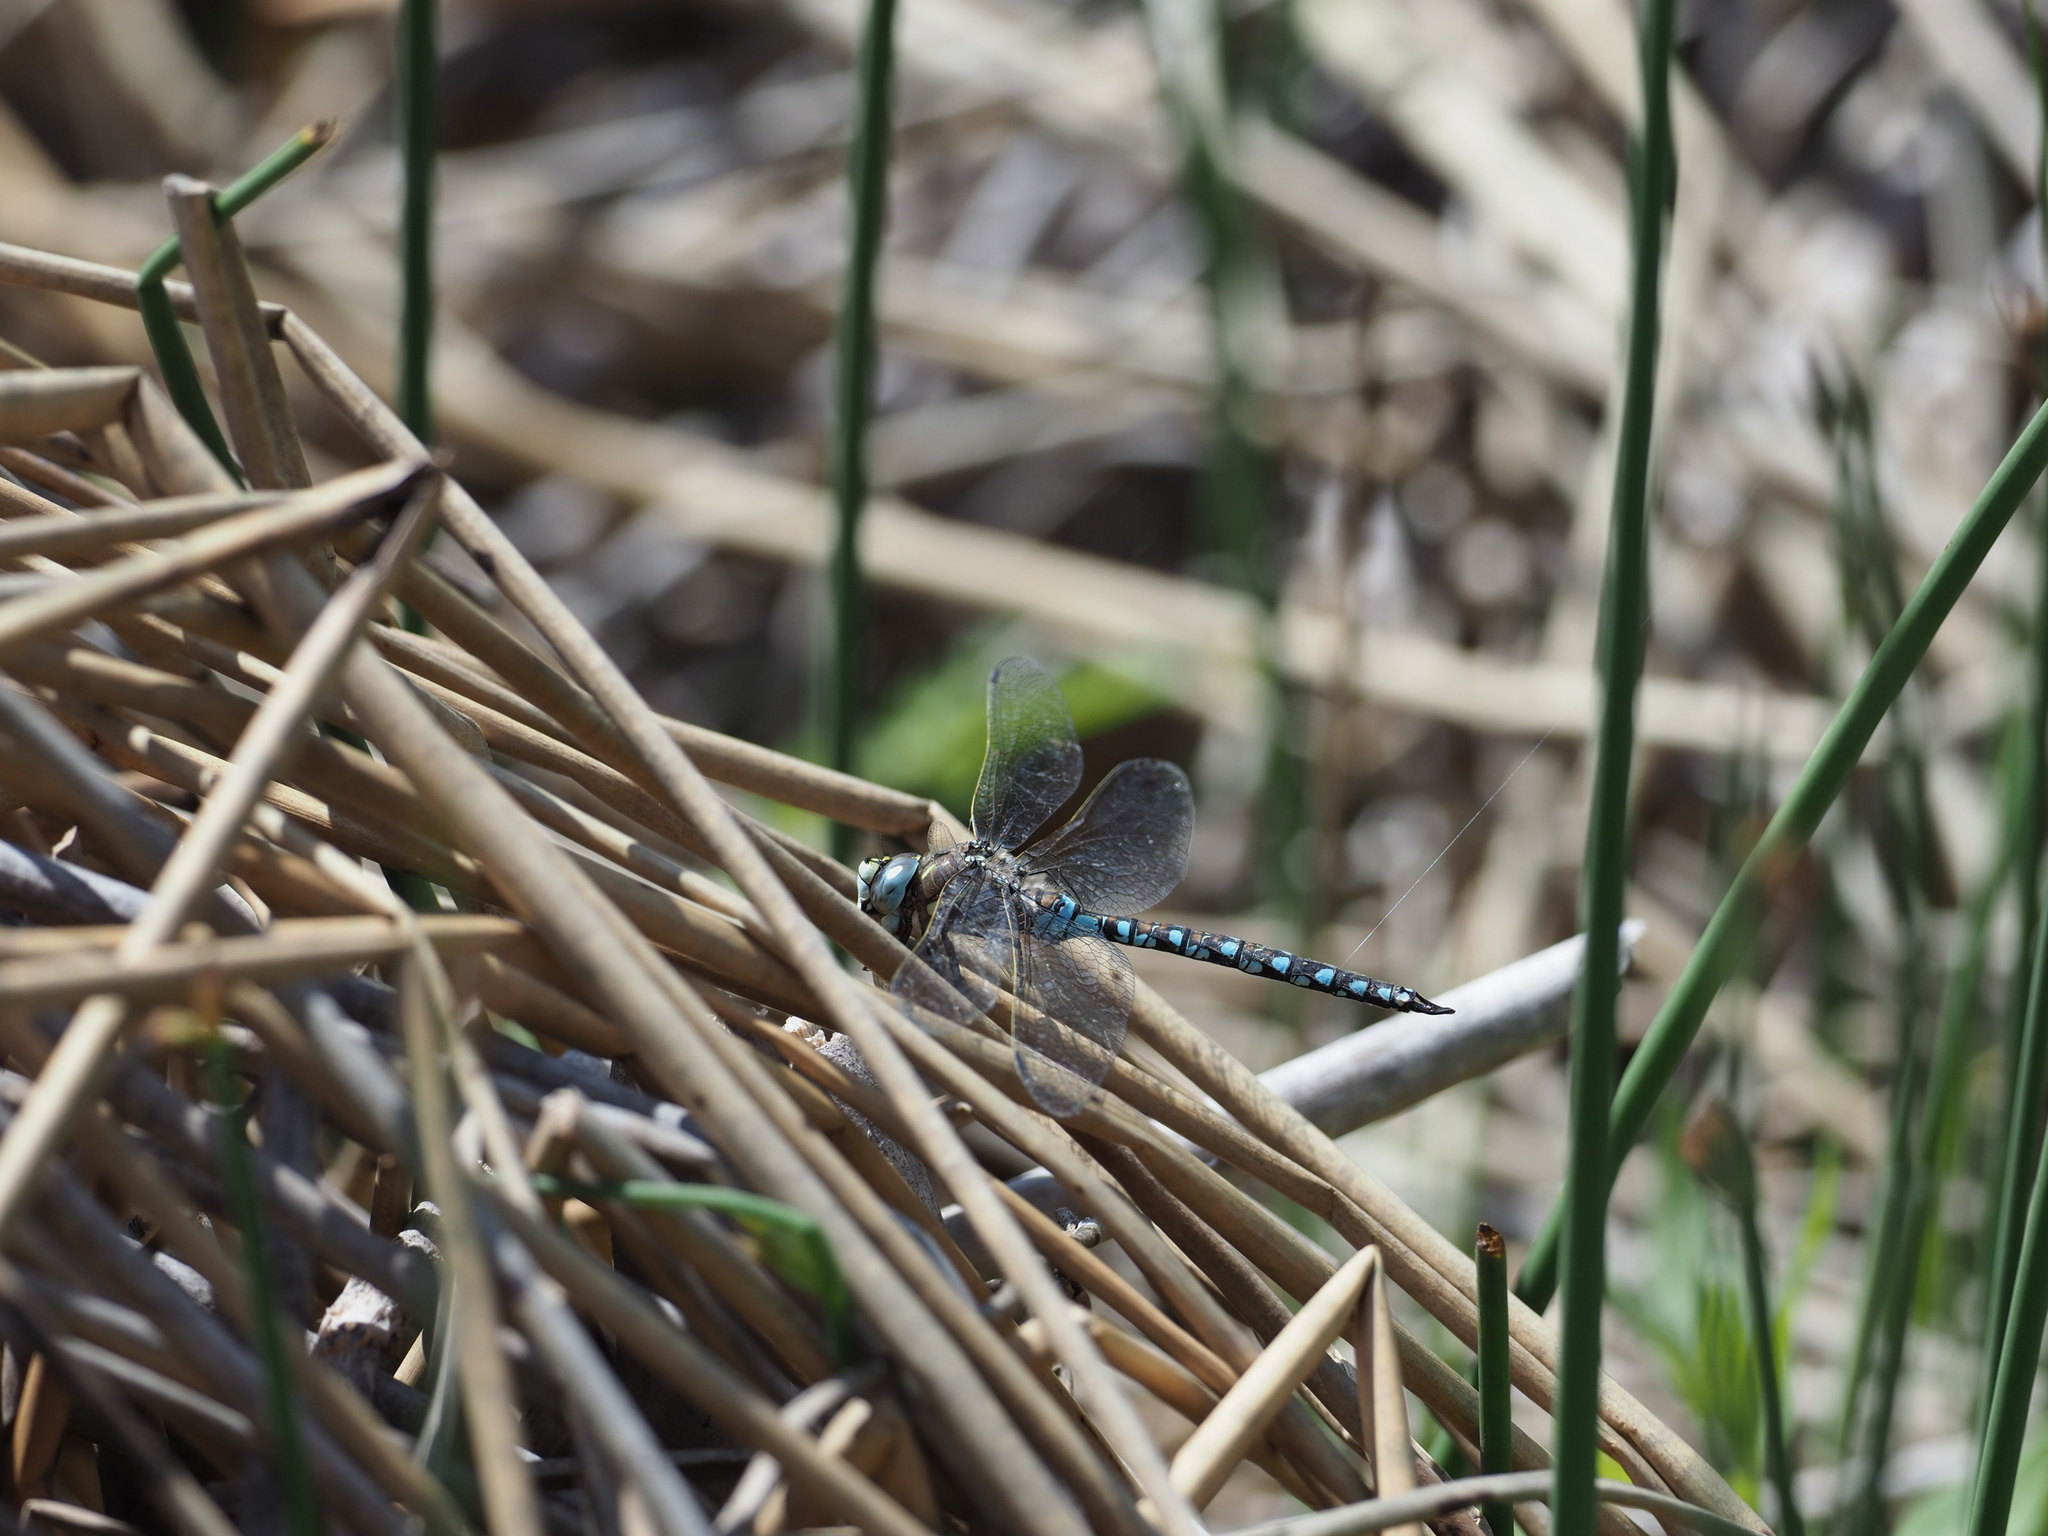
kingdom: Animalia
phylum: Arthropoda
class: Insecta
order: Odonata
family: Aeshnidae
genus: Rhionaeschna
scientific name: Rhionaeschna californica
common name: California darner
